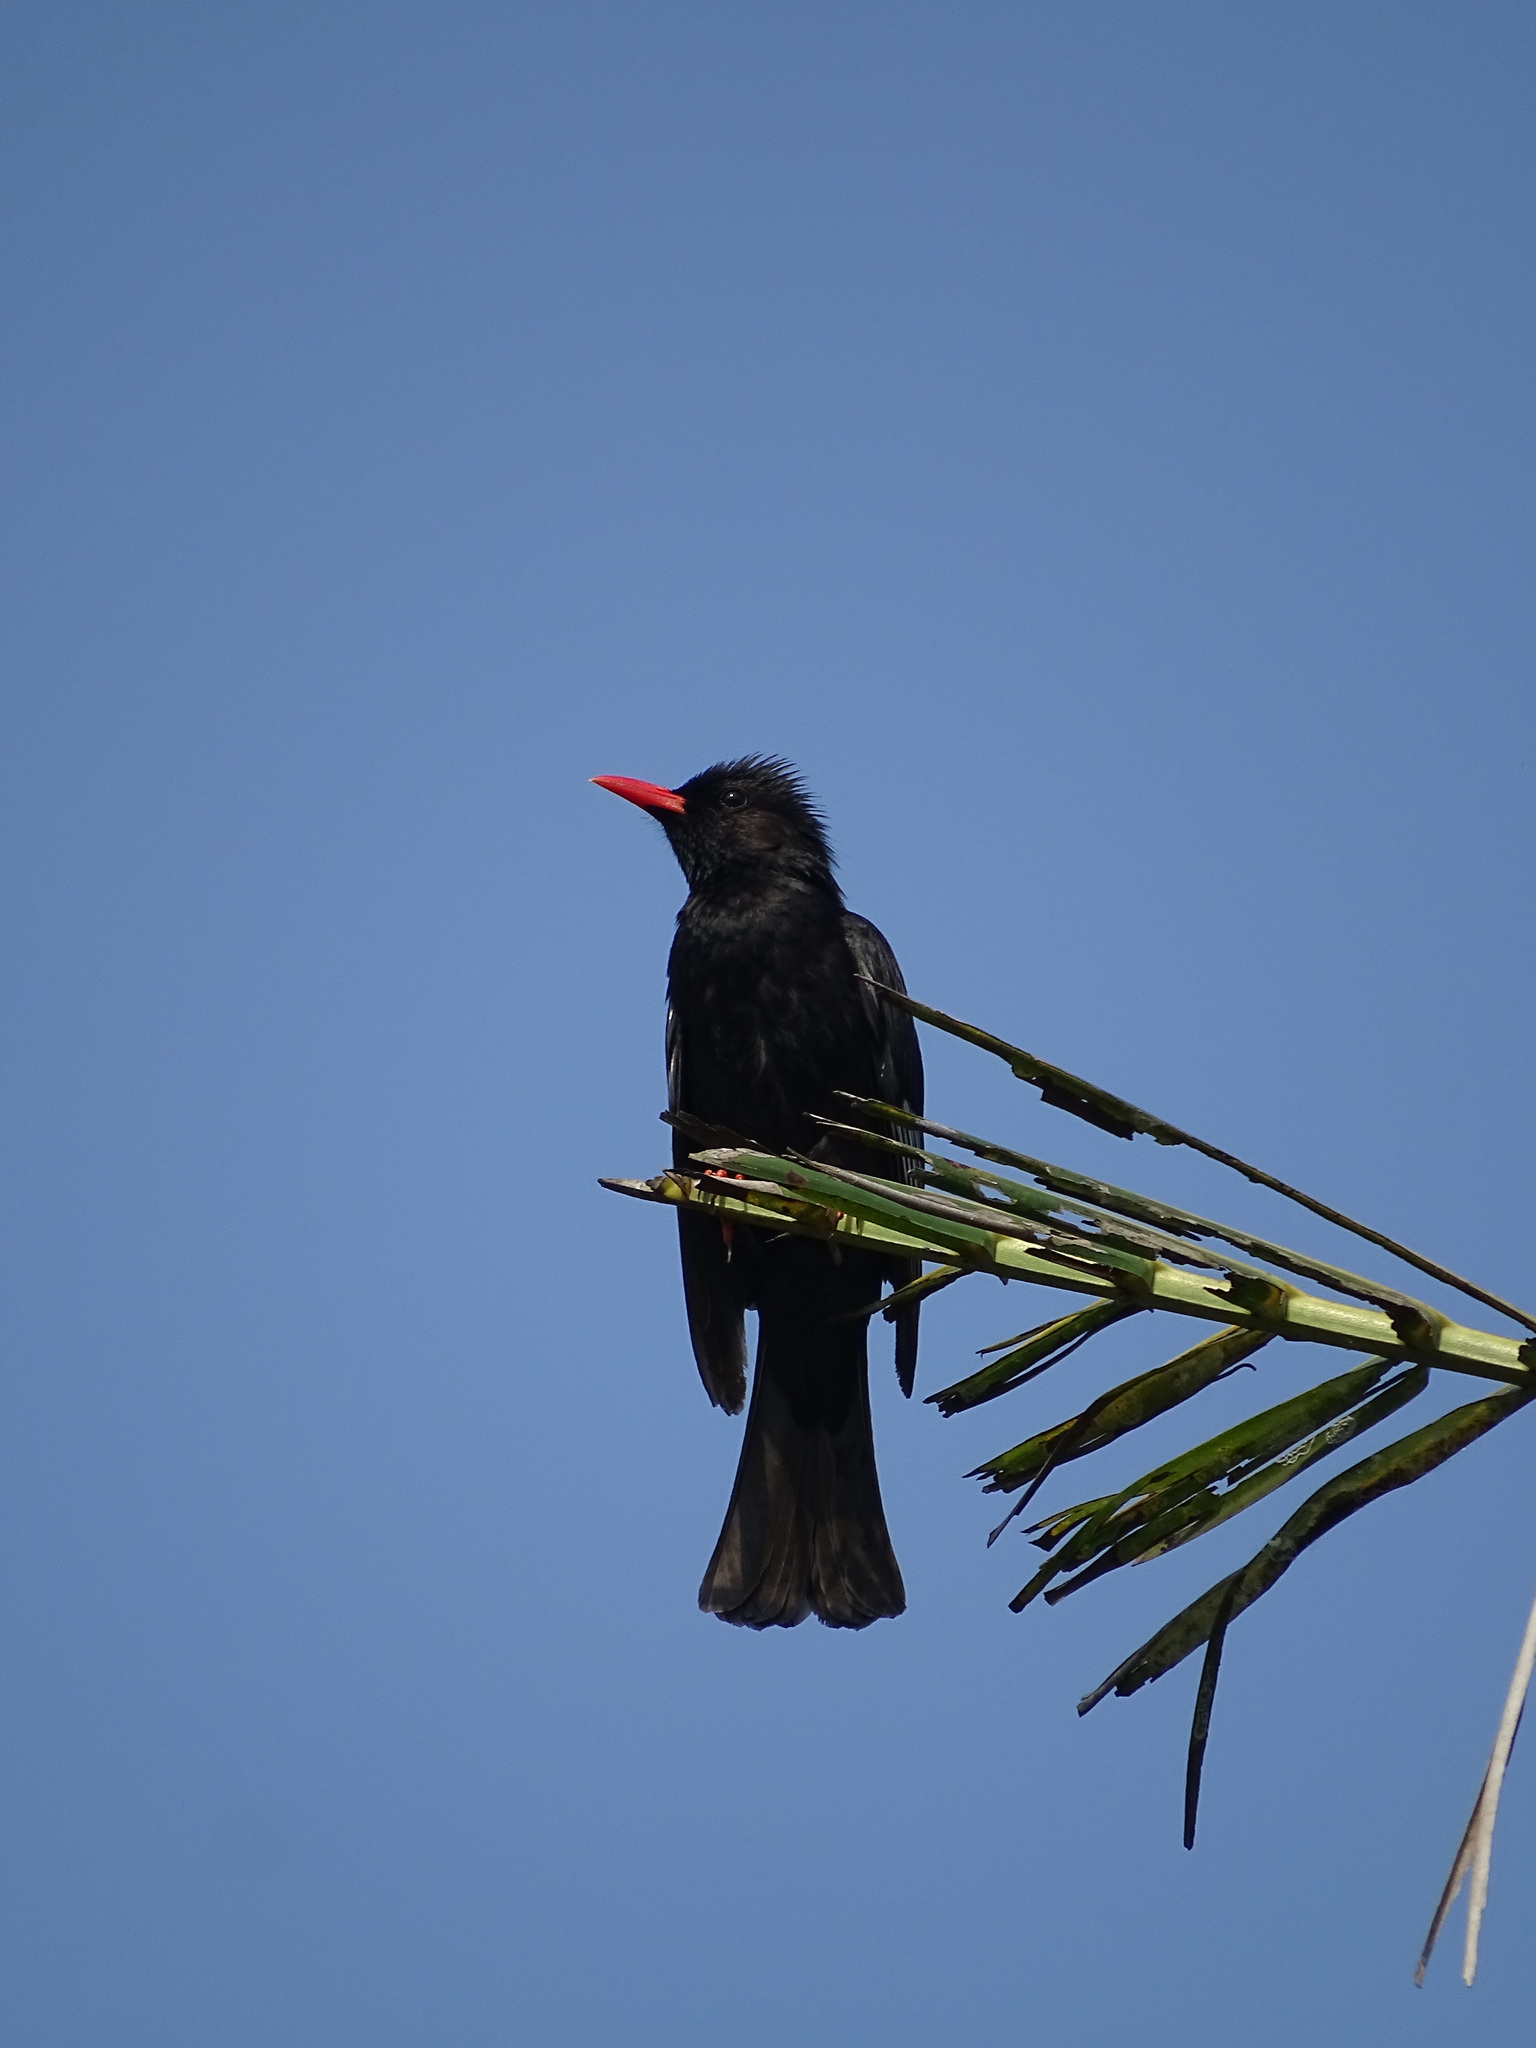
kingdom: Animalia
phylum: Chordata
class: Aves
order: Passeriformes
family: Pycnonotidae
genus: Hypsipetes
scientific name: Hypsipetes leucocephalus
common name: Black bulbul
